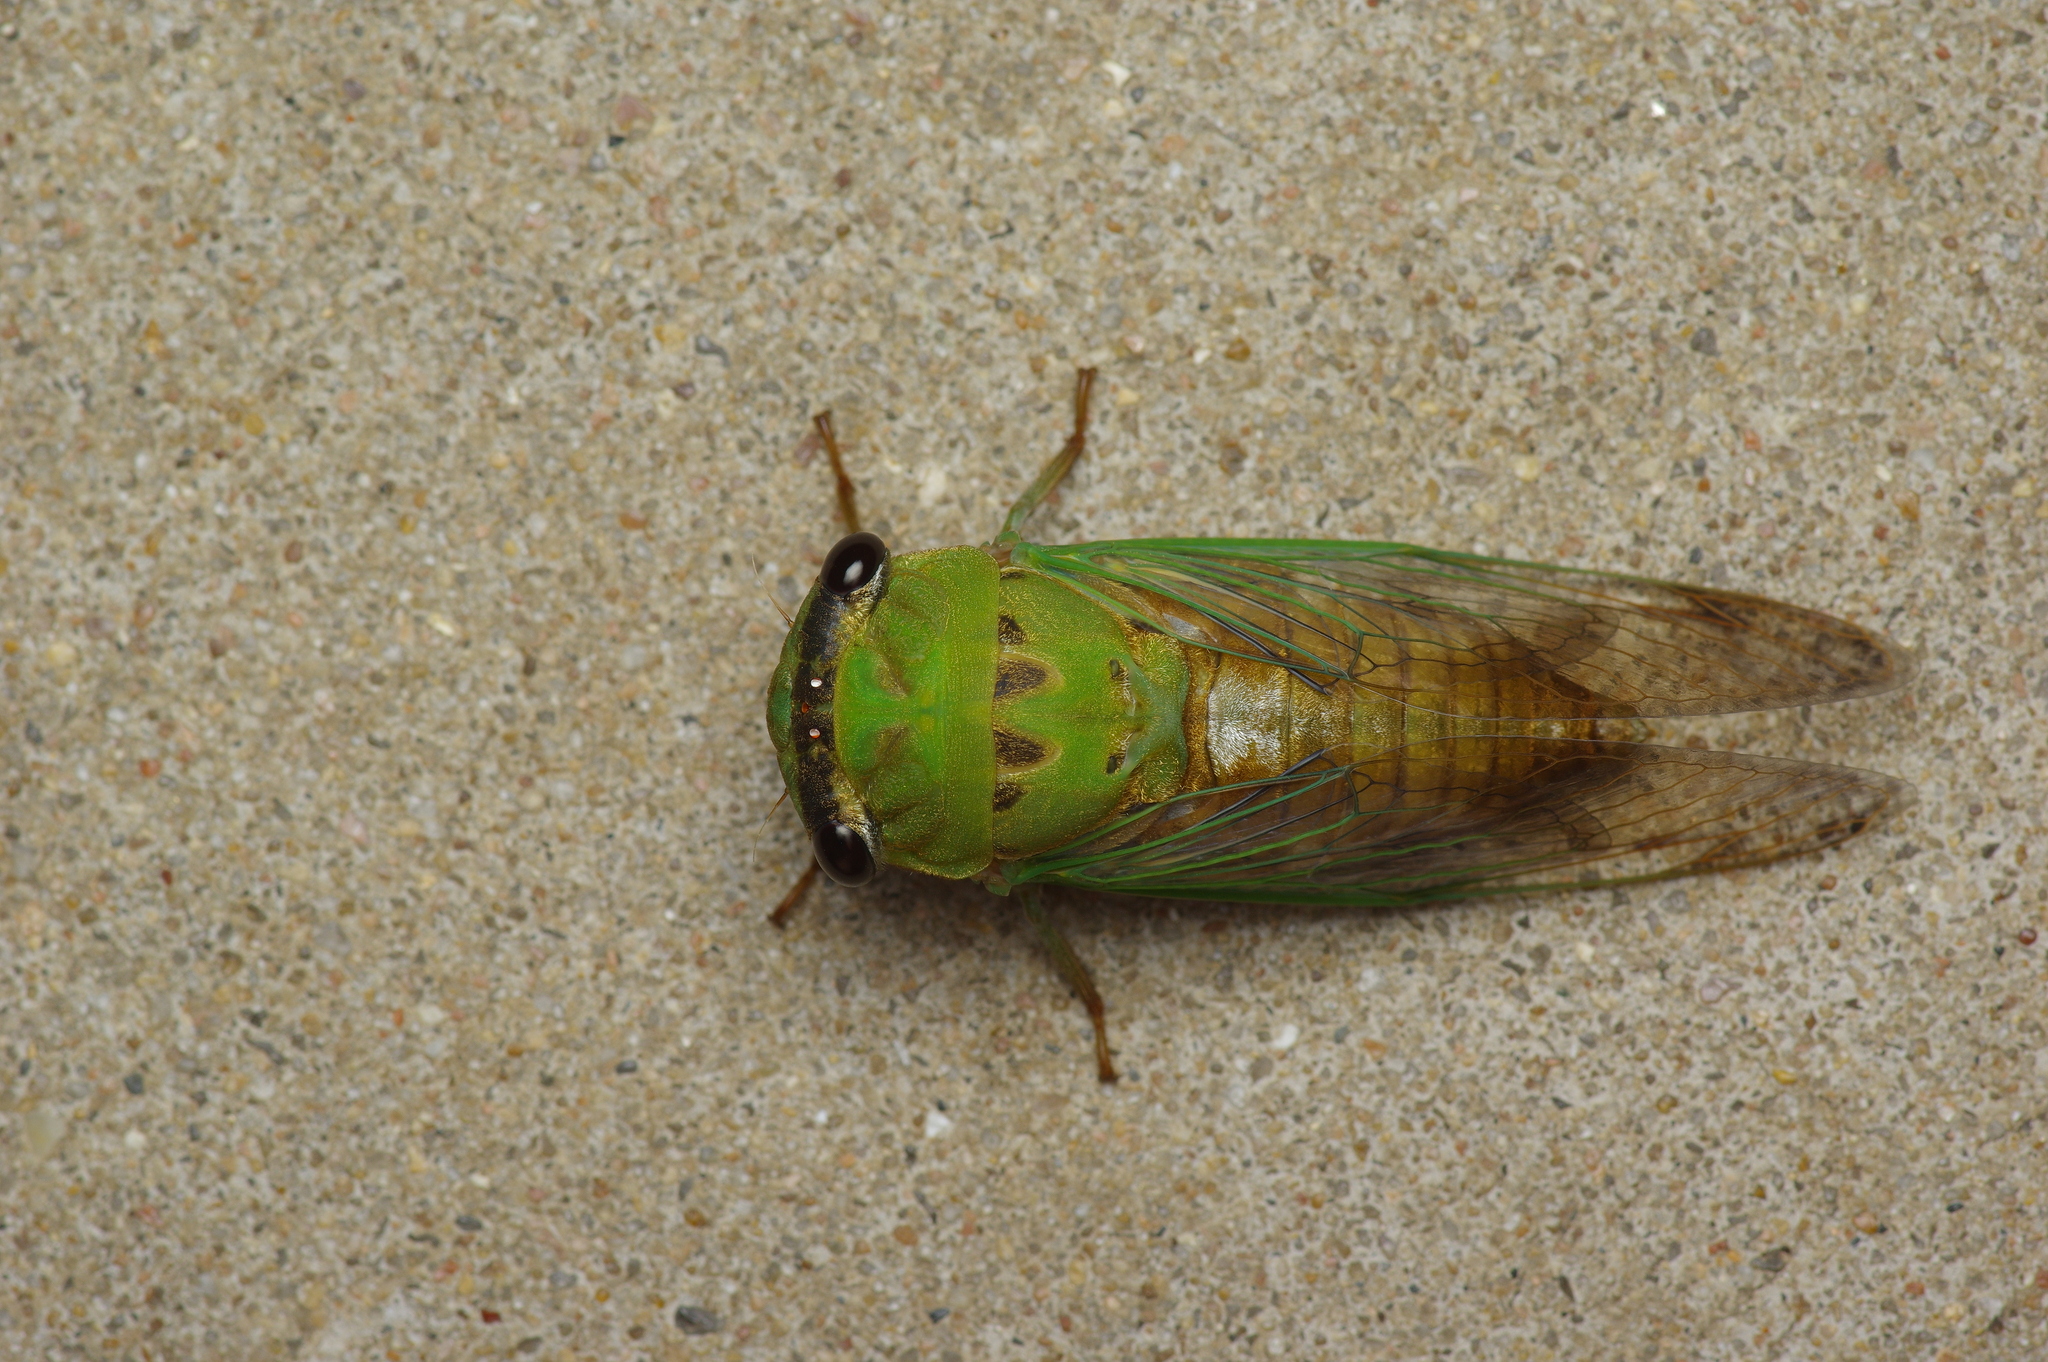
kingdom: Animalia
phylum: Arthropoda
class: Insecta
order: Hemiptera
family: Cicadidae
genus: Neotibicen
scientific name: Neotibicen superbus
